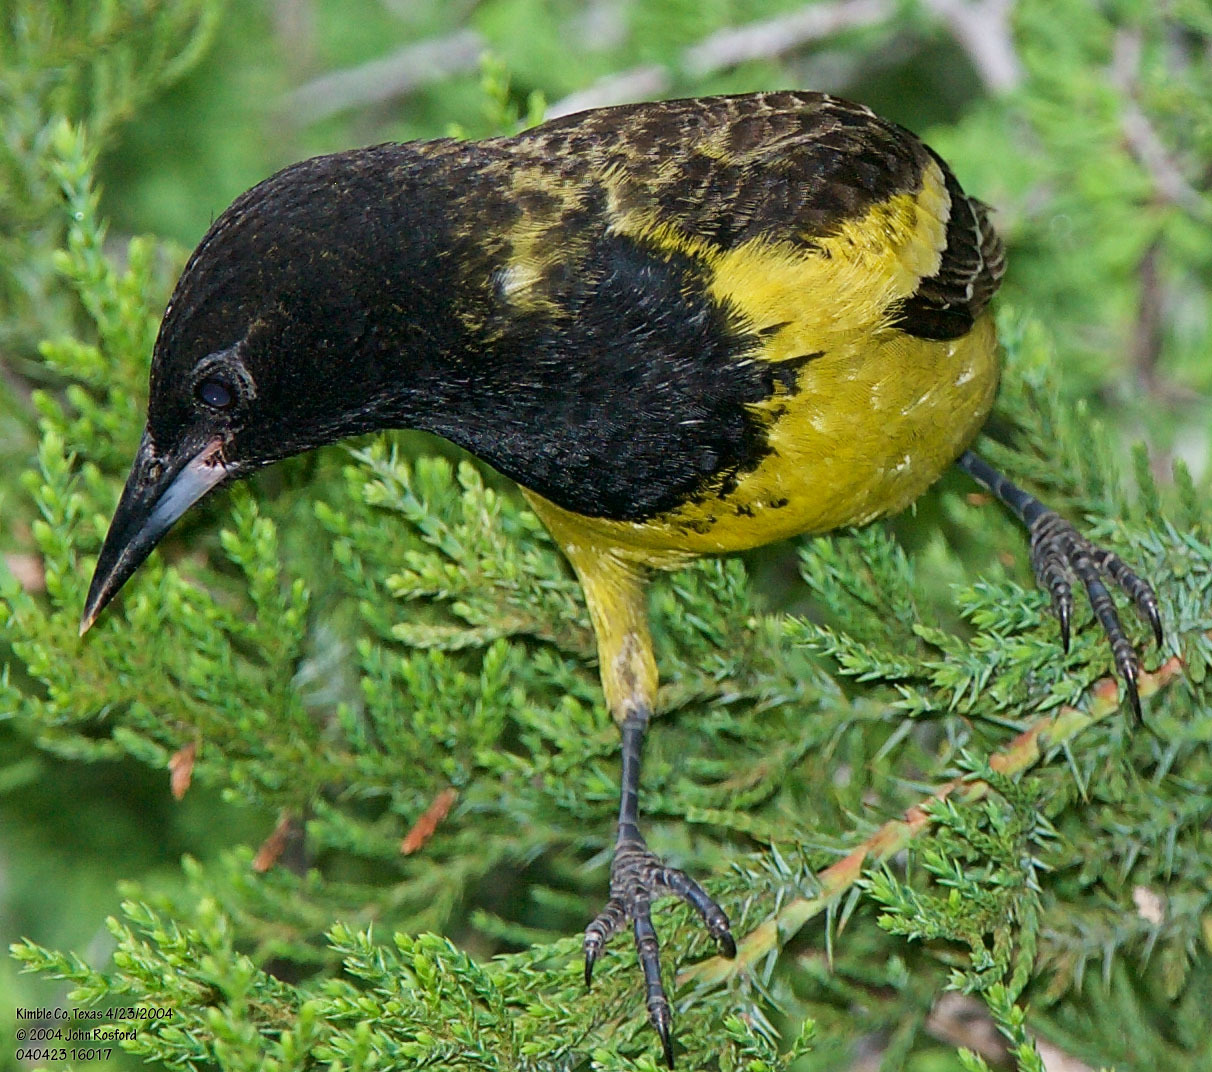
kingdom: Animalia
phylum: Chordata
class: Aves
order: Passeriformes
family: Icteridae
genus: Icterus
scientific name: Icterus parisorum
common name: Scott's oriole
